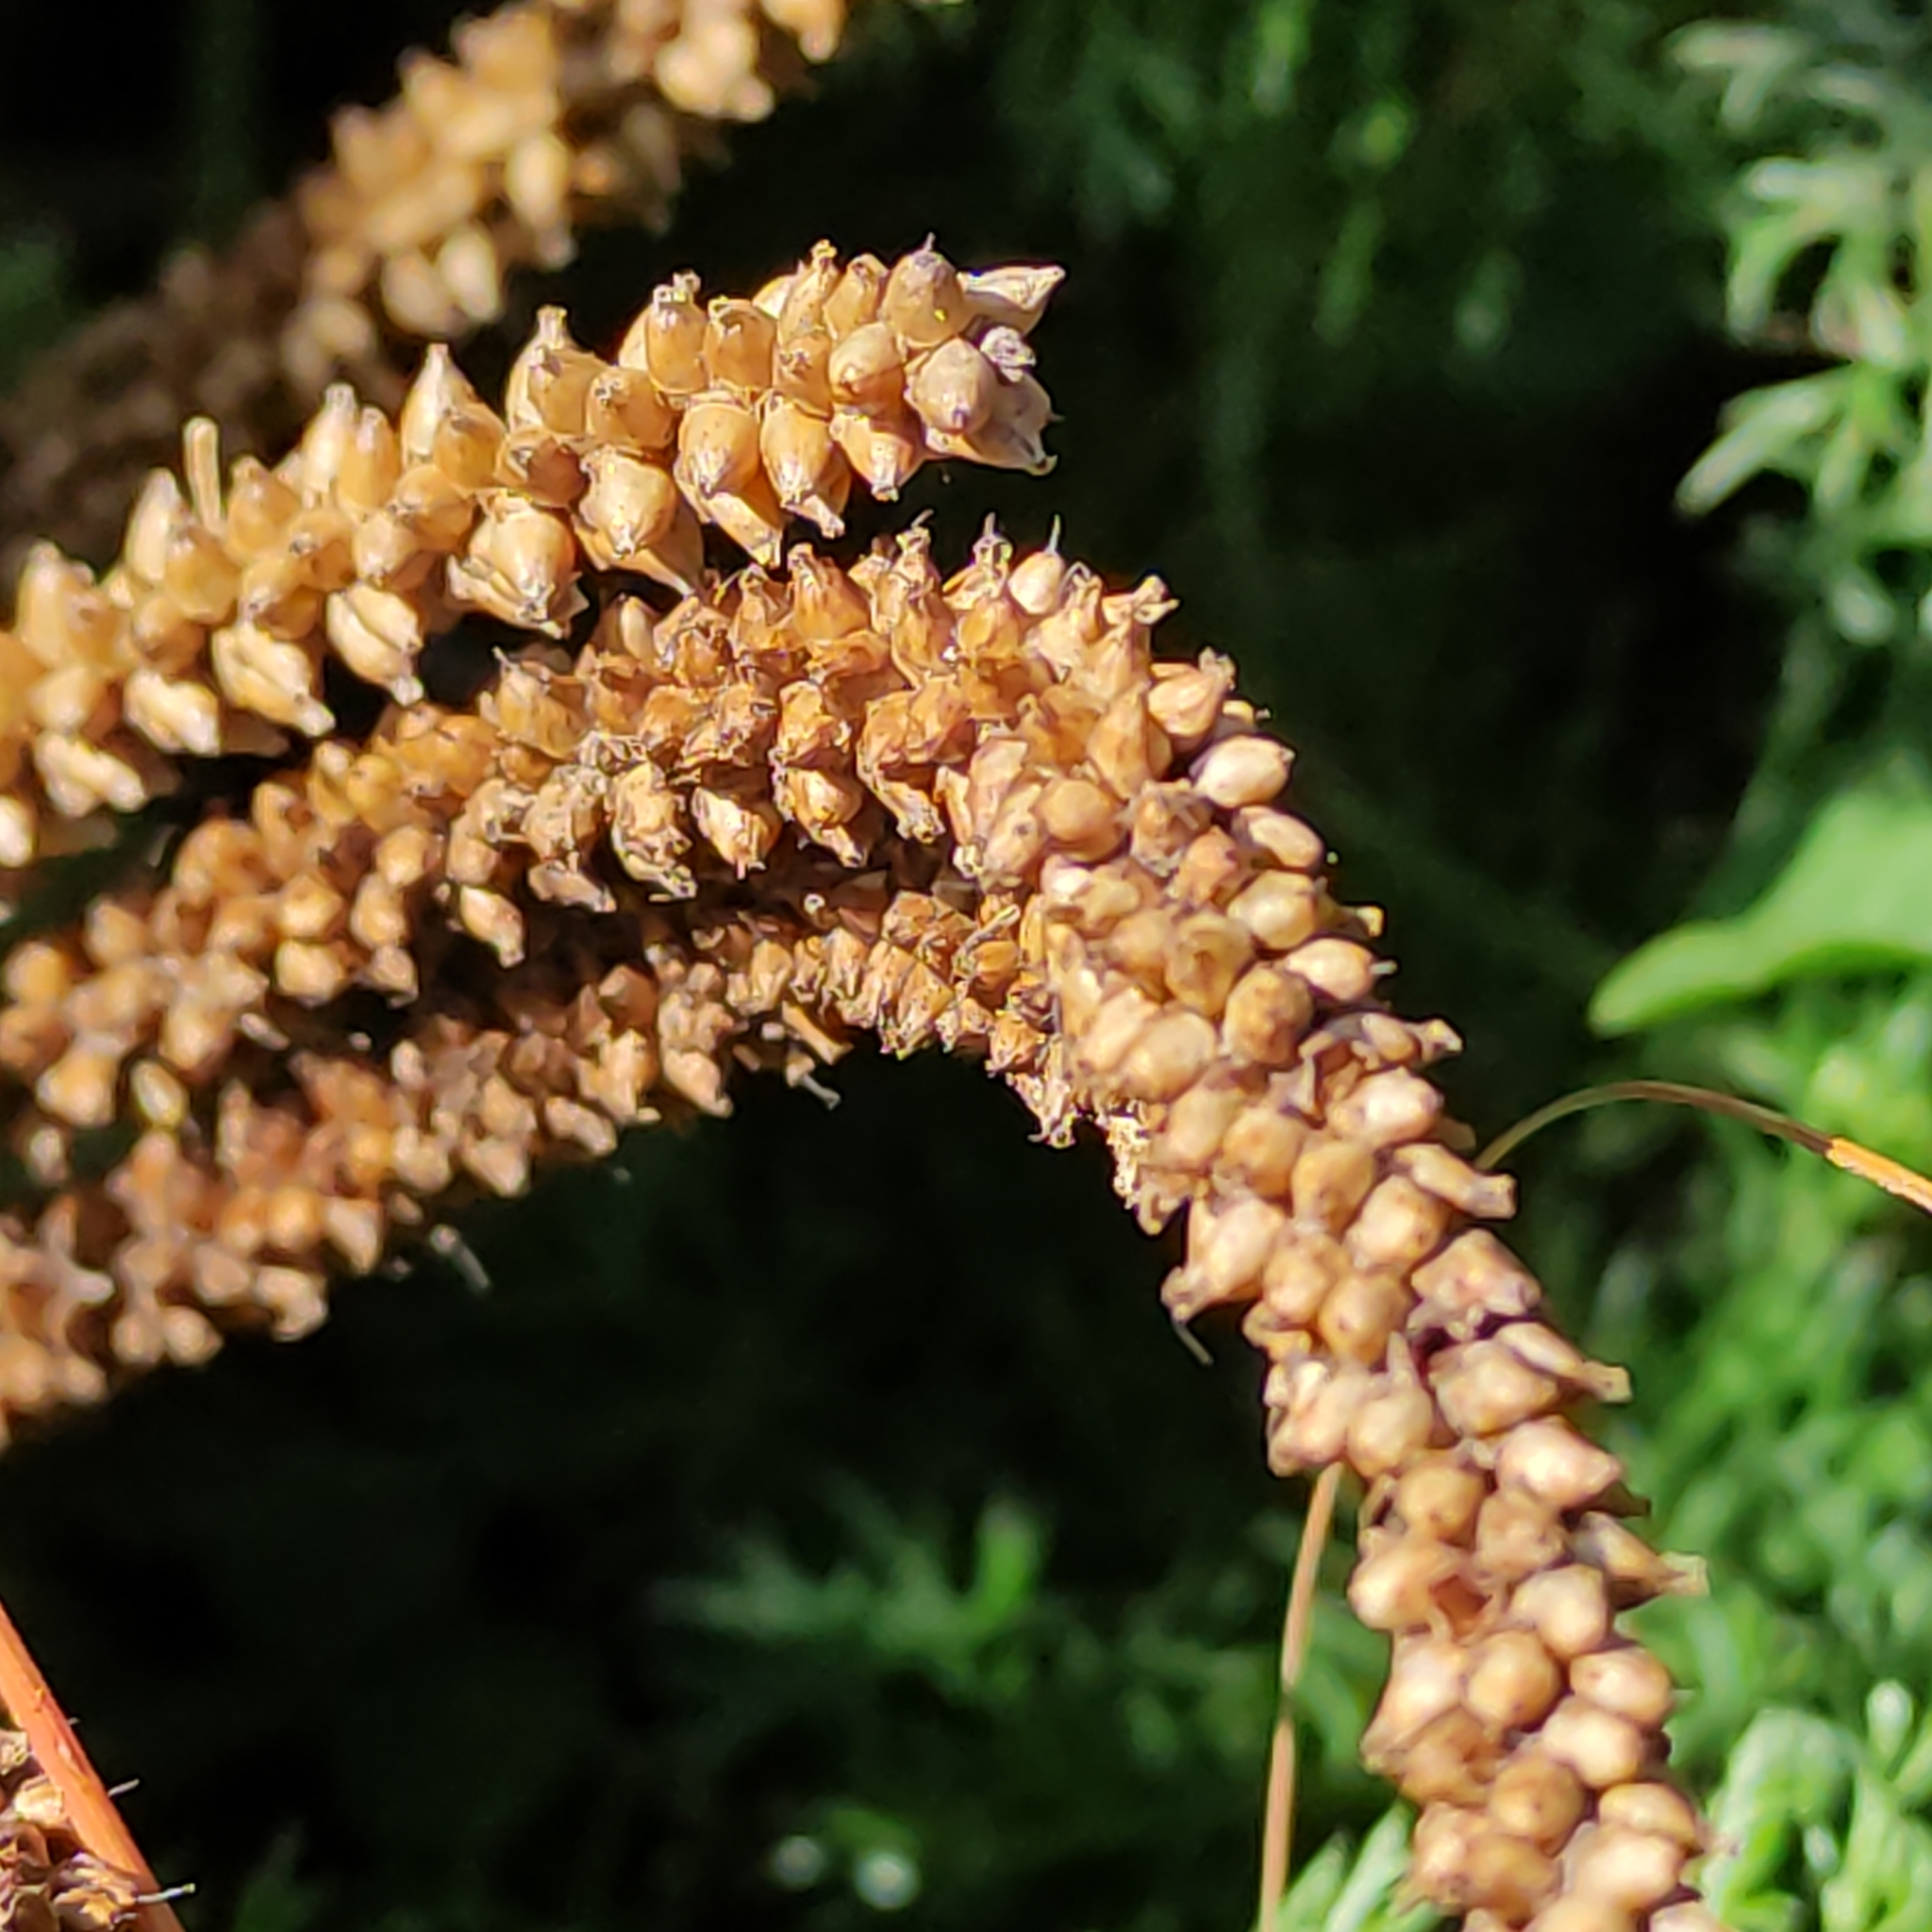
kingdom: Plantae
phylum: Tracheophyta
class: Magnoliopsida
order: Lamiales
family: Plantaginaceae
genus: Plantago
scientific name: Plantago major
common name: Common plantain
